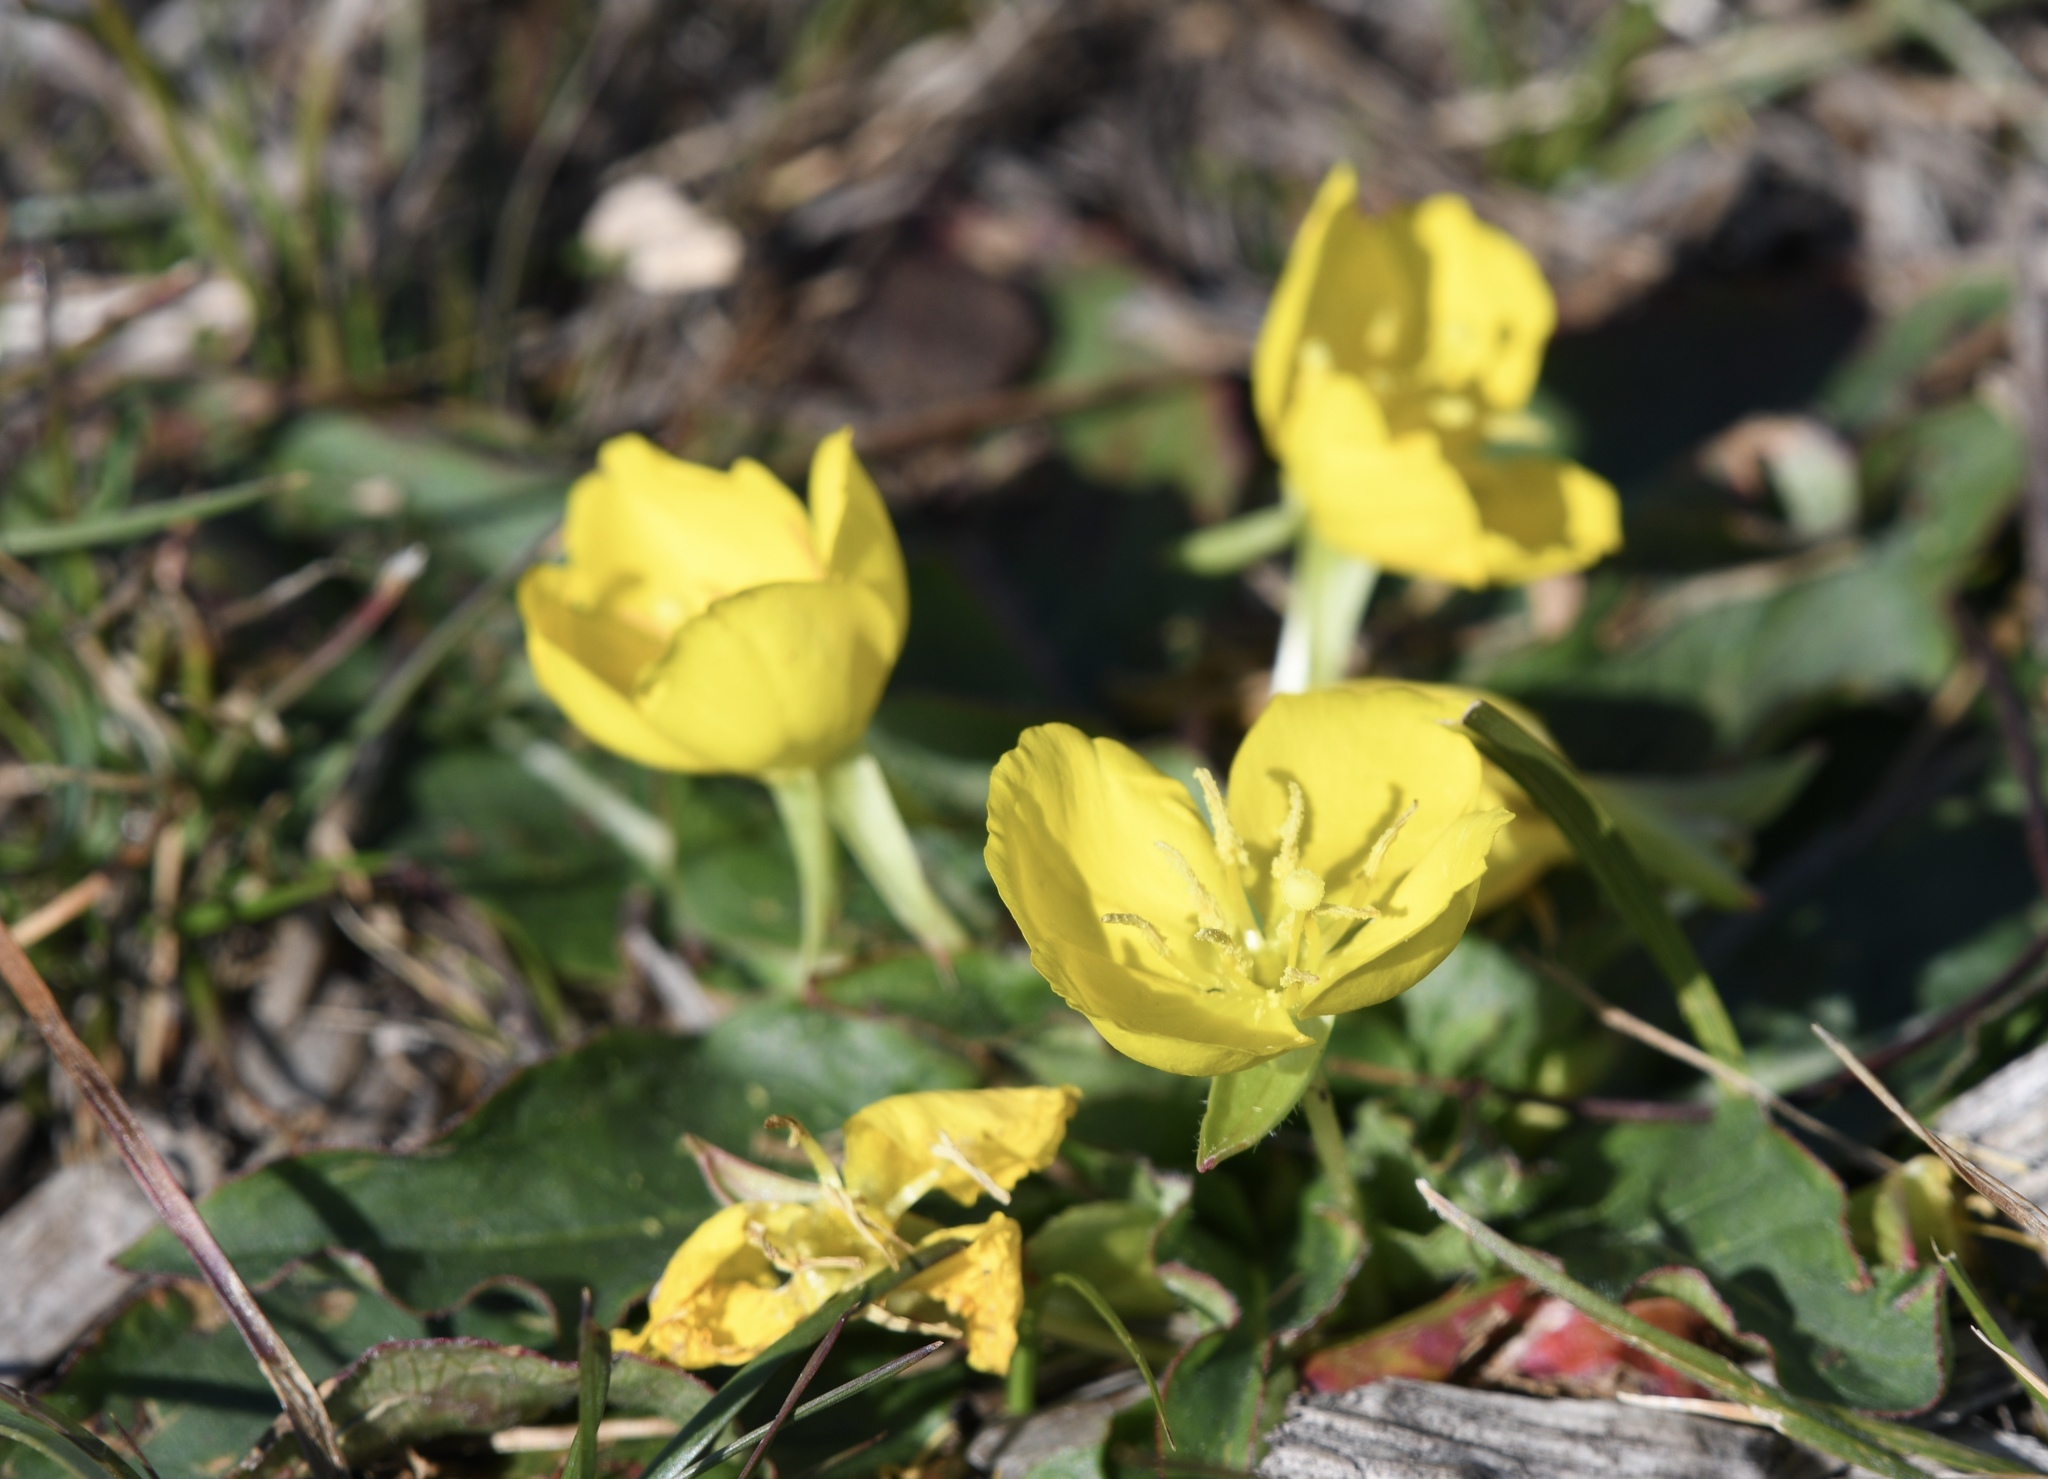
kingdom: Plantae
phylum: Tracheophyta
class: Magnoliopsida
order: Myrtales
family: Onagraceae
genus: Taraxia
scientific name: Taraxia ovata
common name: Goldeneggs
